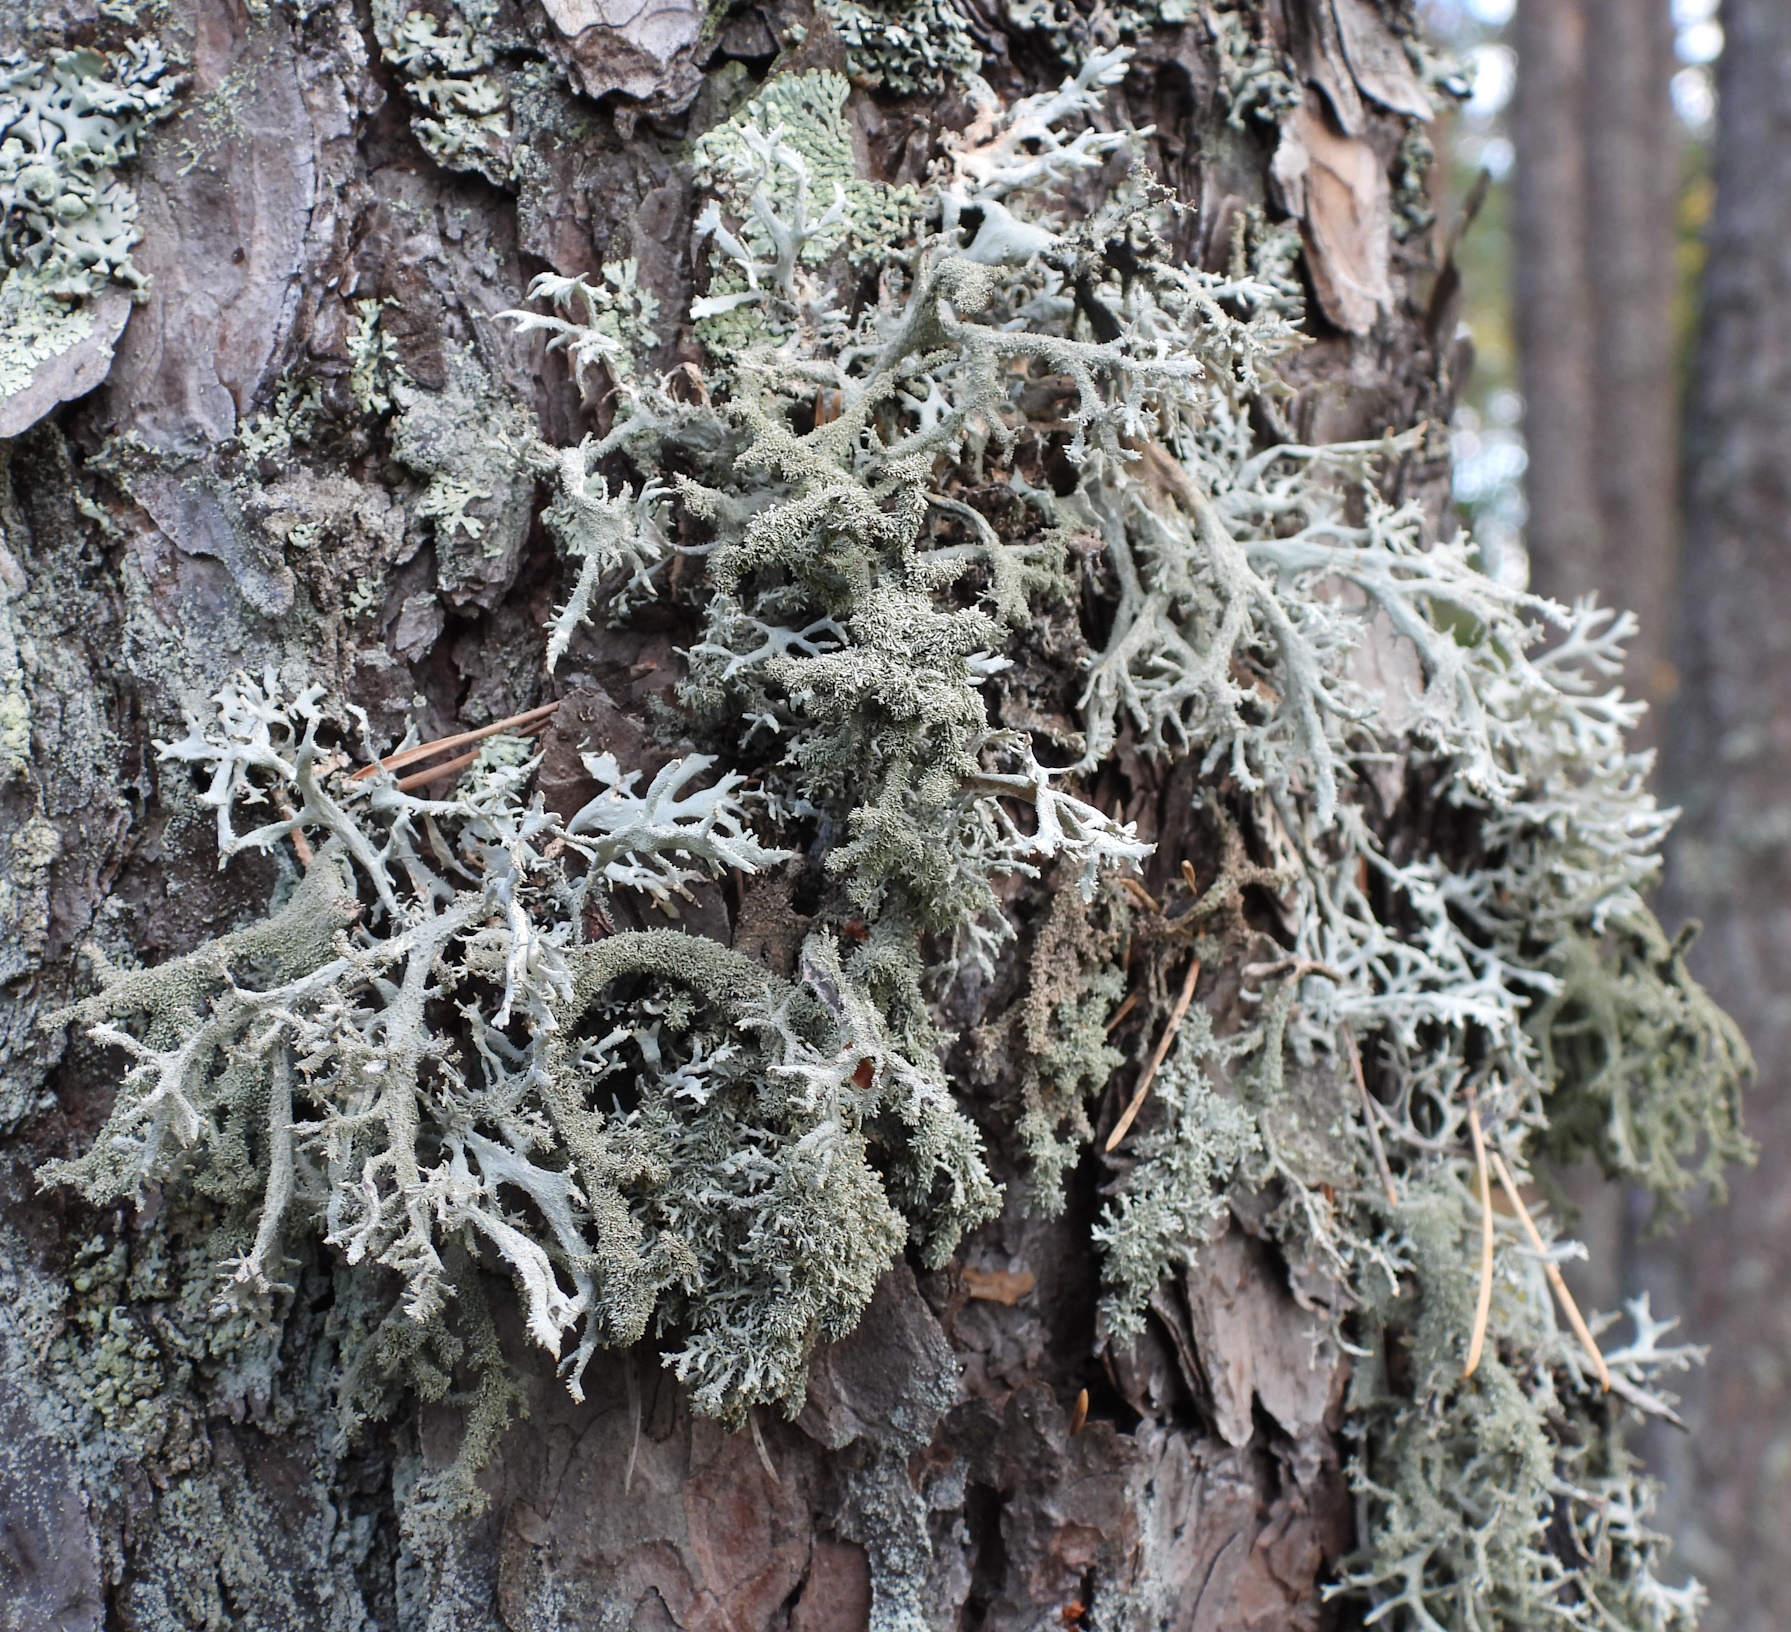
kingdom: Fungi
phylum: Ascomycota
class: Lecanoromycetes
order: Lecanorales
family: Parmeliaceae
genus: Pseudevernia
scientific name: Pseudevernia furfuracea
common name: Tree moss
